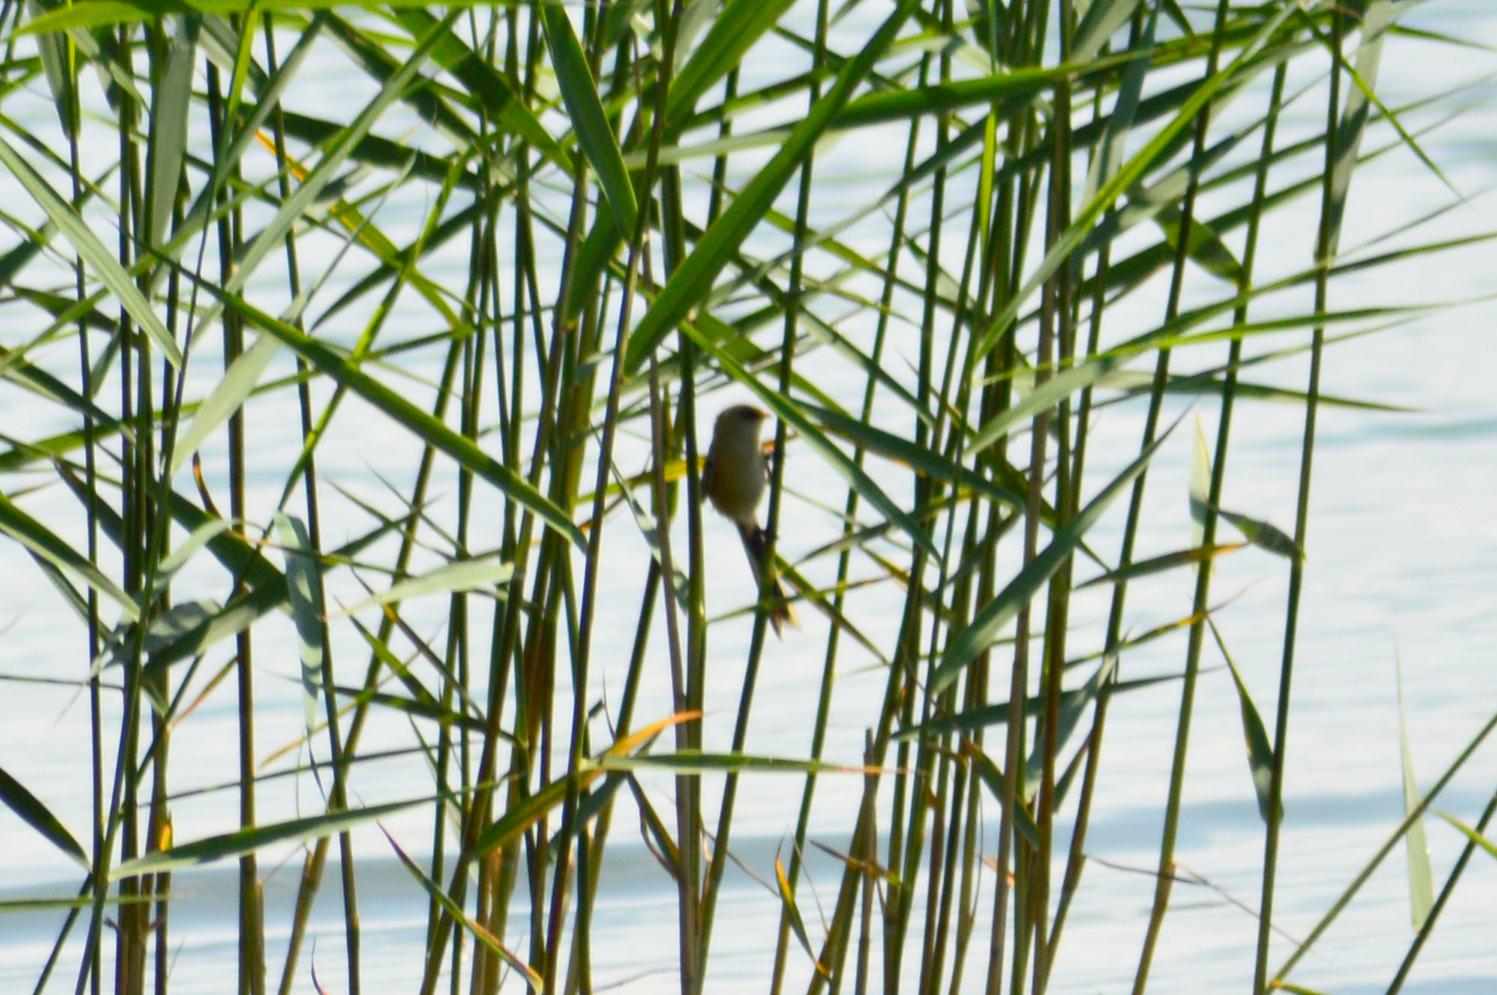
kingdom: Animalia
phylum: Chordata
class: Aves
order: Passeriformes
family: Panuridae
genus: Panurus
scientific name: Panurus biarmicus
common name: Bearded reedling
